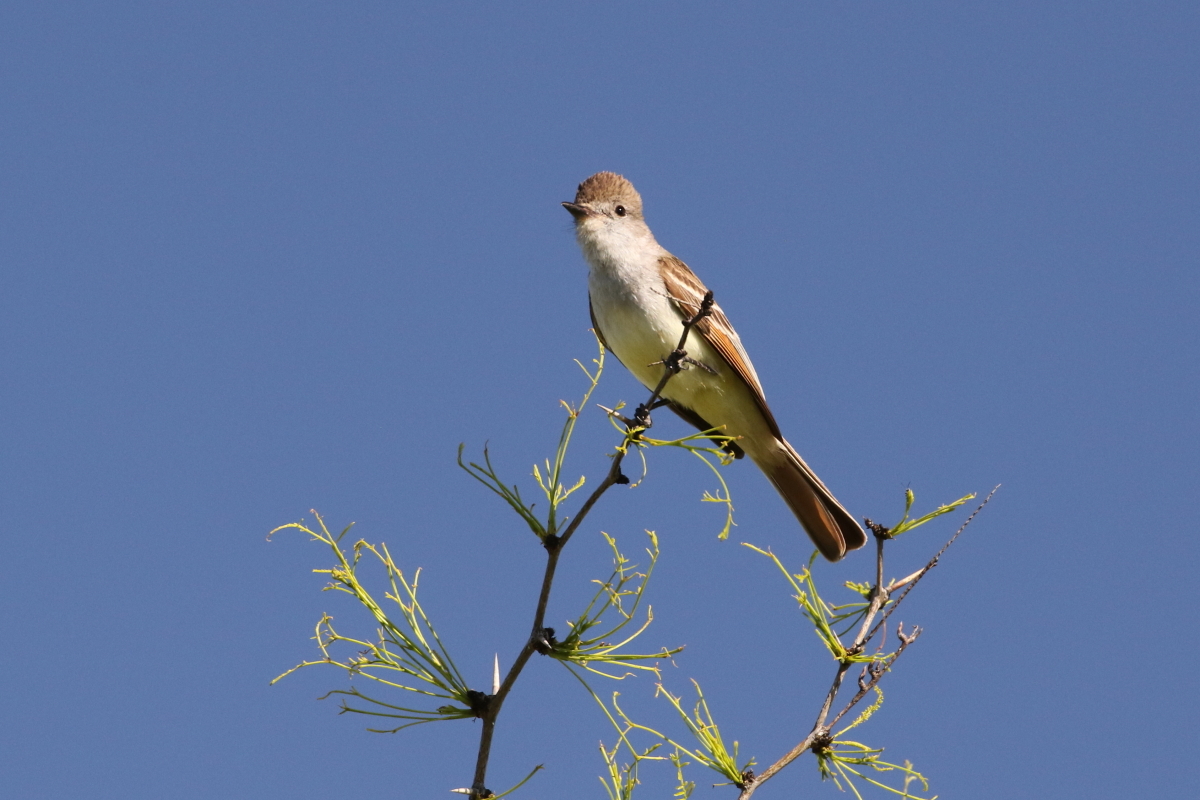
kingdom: Animalia
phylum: Chordata
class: Aves
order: Passeriformes
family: Tyrannidae
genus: Myiarchus
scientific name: Myiarchus cinerascens
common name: Ash-throated flycatcher
